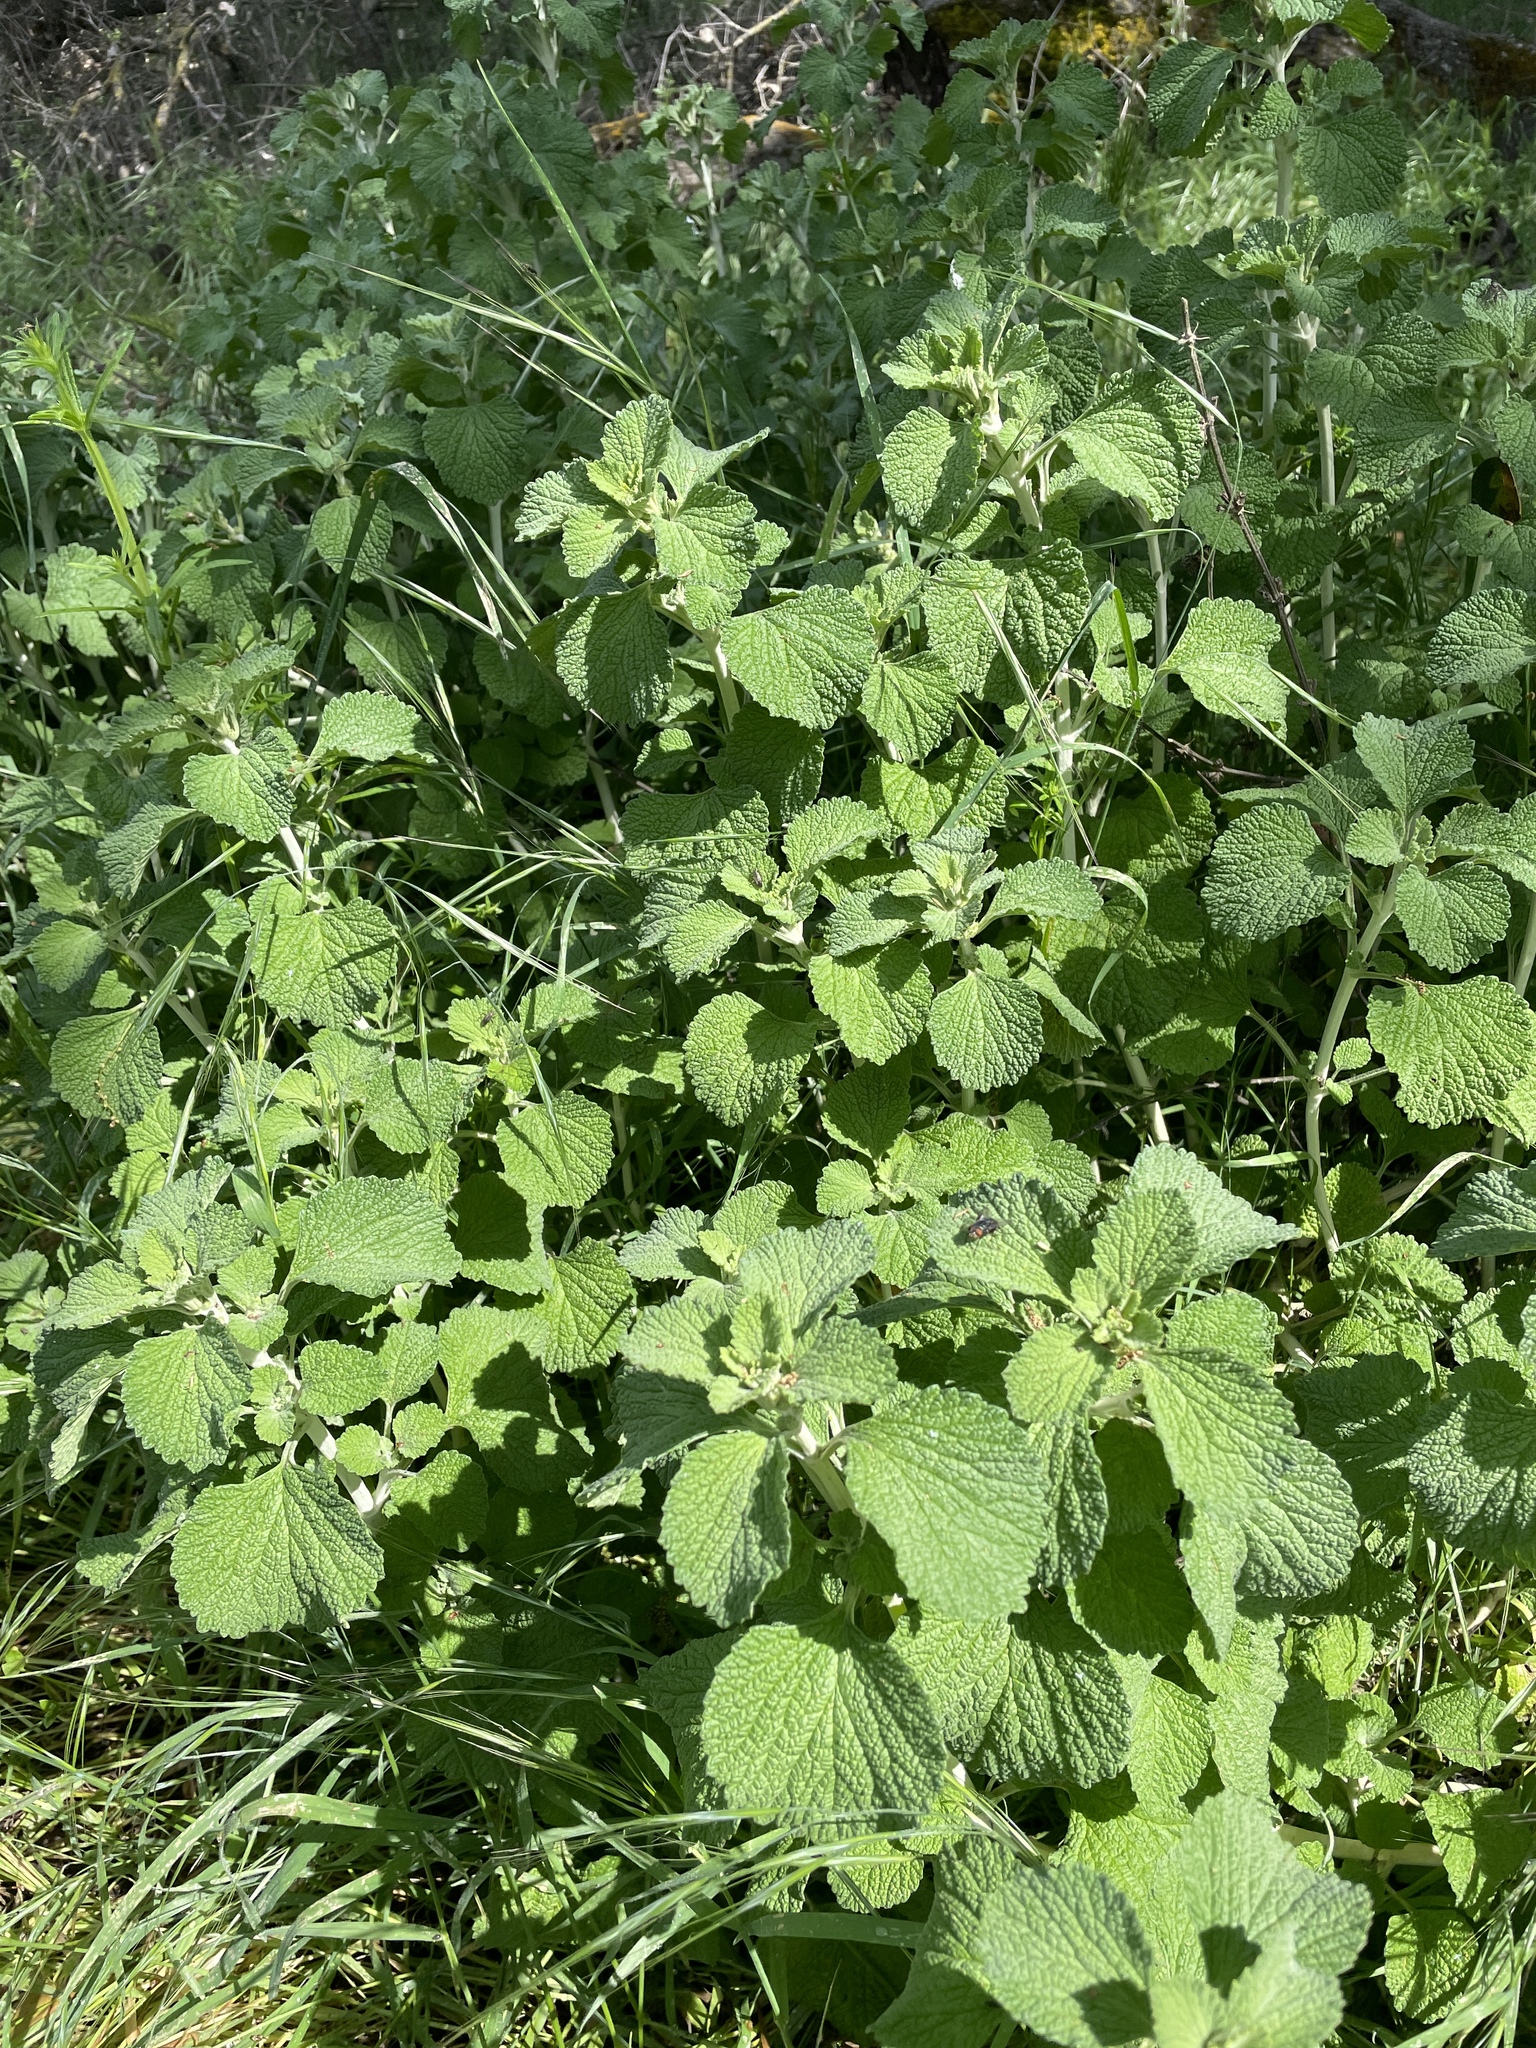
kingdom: Plantae
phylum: Tracheophyta
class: Magnoliopsida
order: Lamiales
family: Lamiaceae
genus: Marrubium
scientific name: Marrubium vulgare
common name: Horehound
